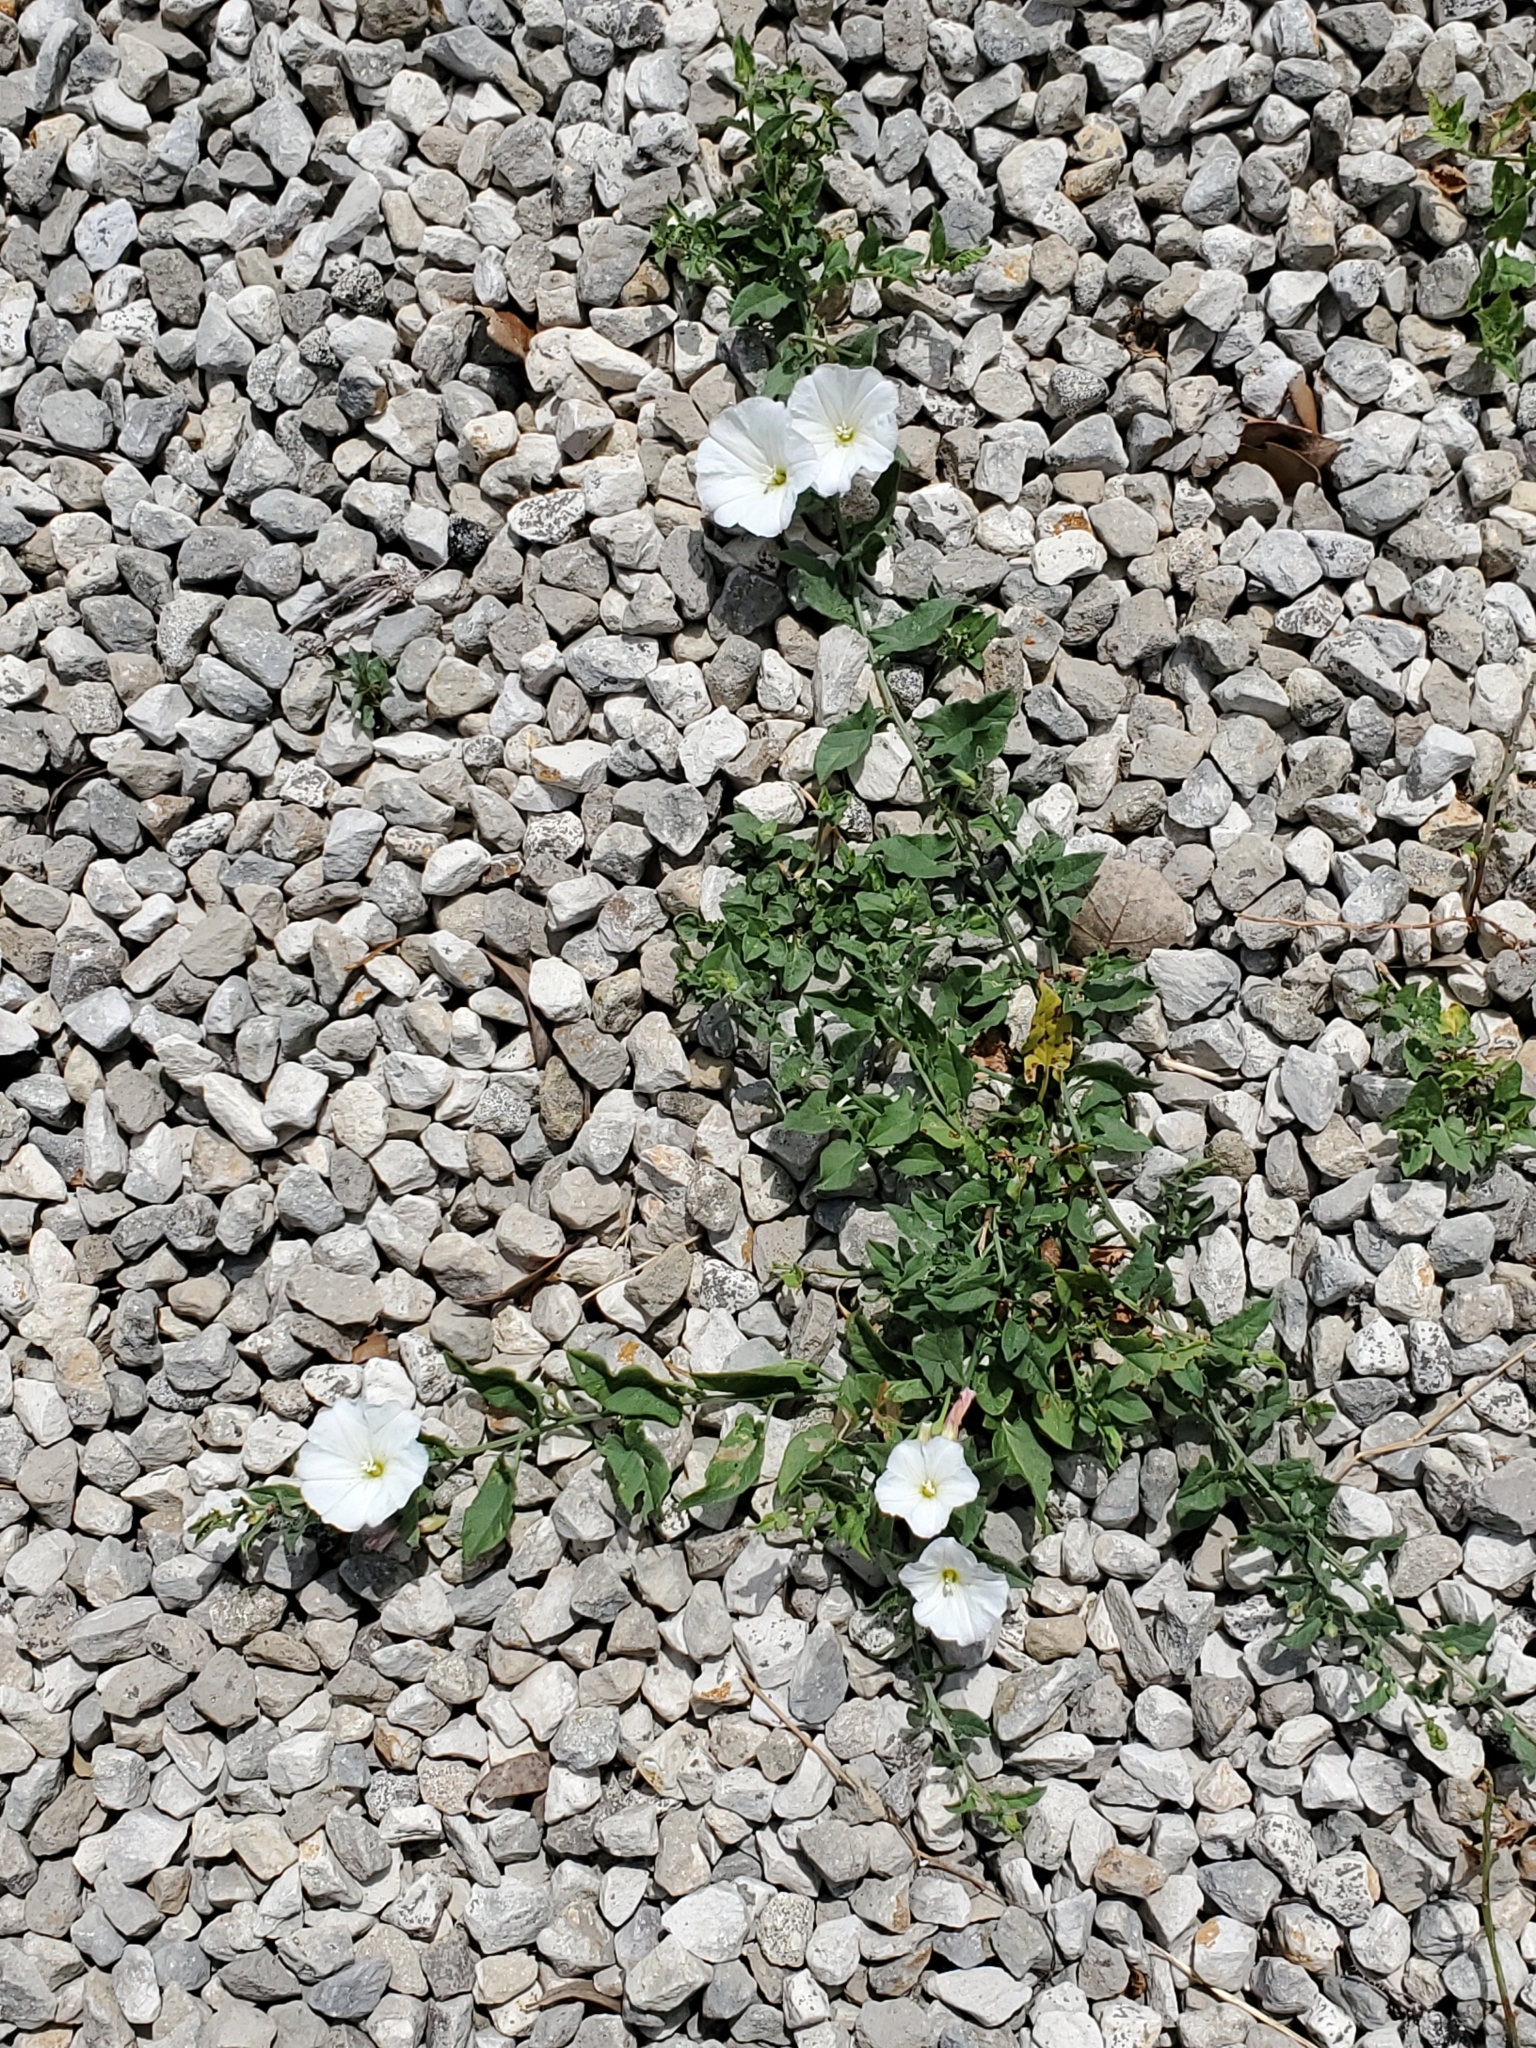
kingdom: Plantae
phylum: Tracheophyta
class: Magnoliopsida
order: Solanales
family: Convolvulaceae
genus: Convolvulus
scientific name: Convolvulus arvensis
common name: Field bindweed
